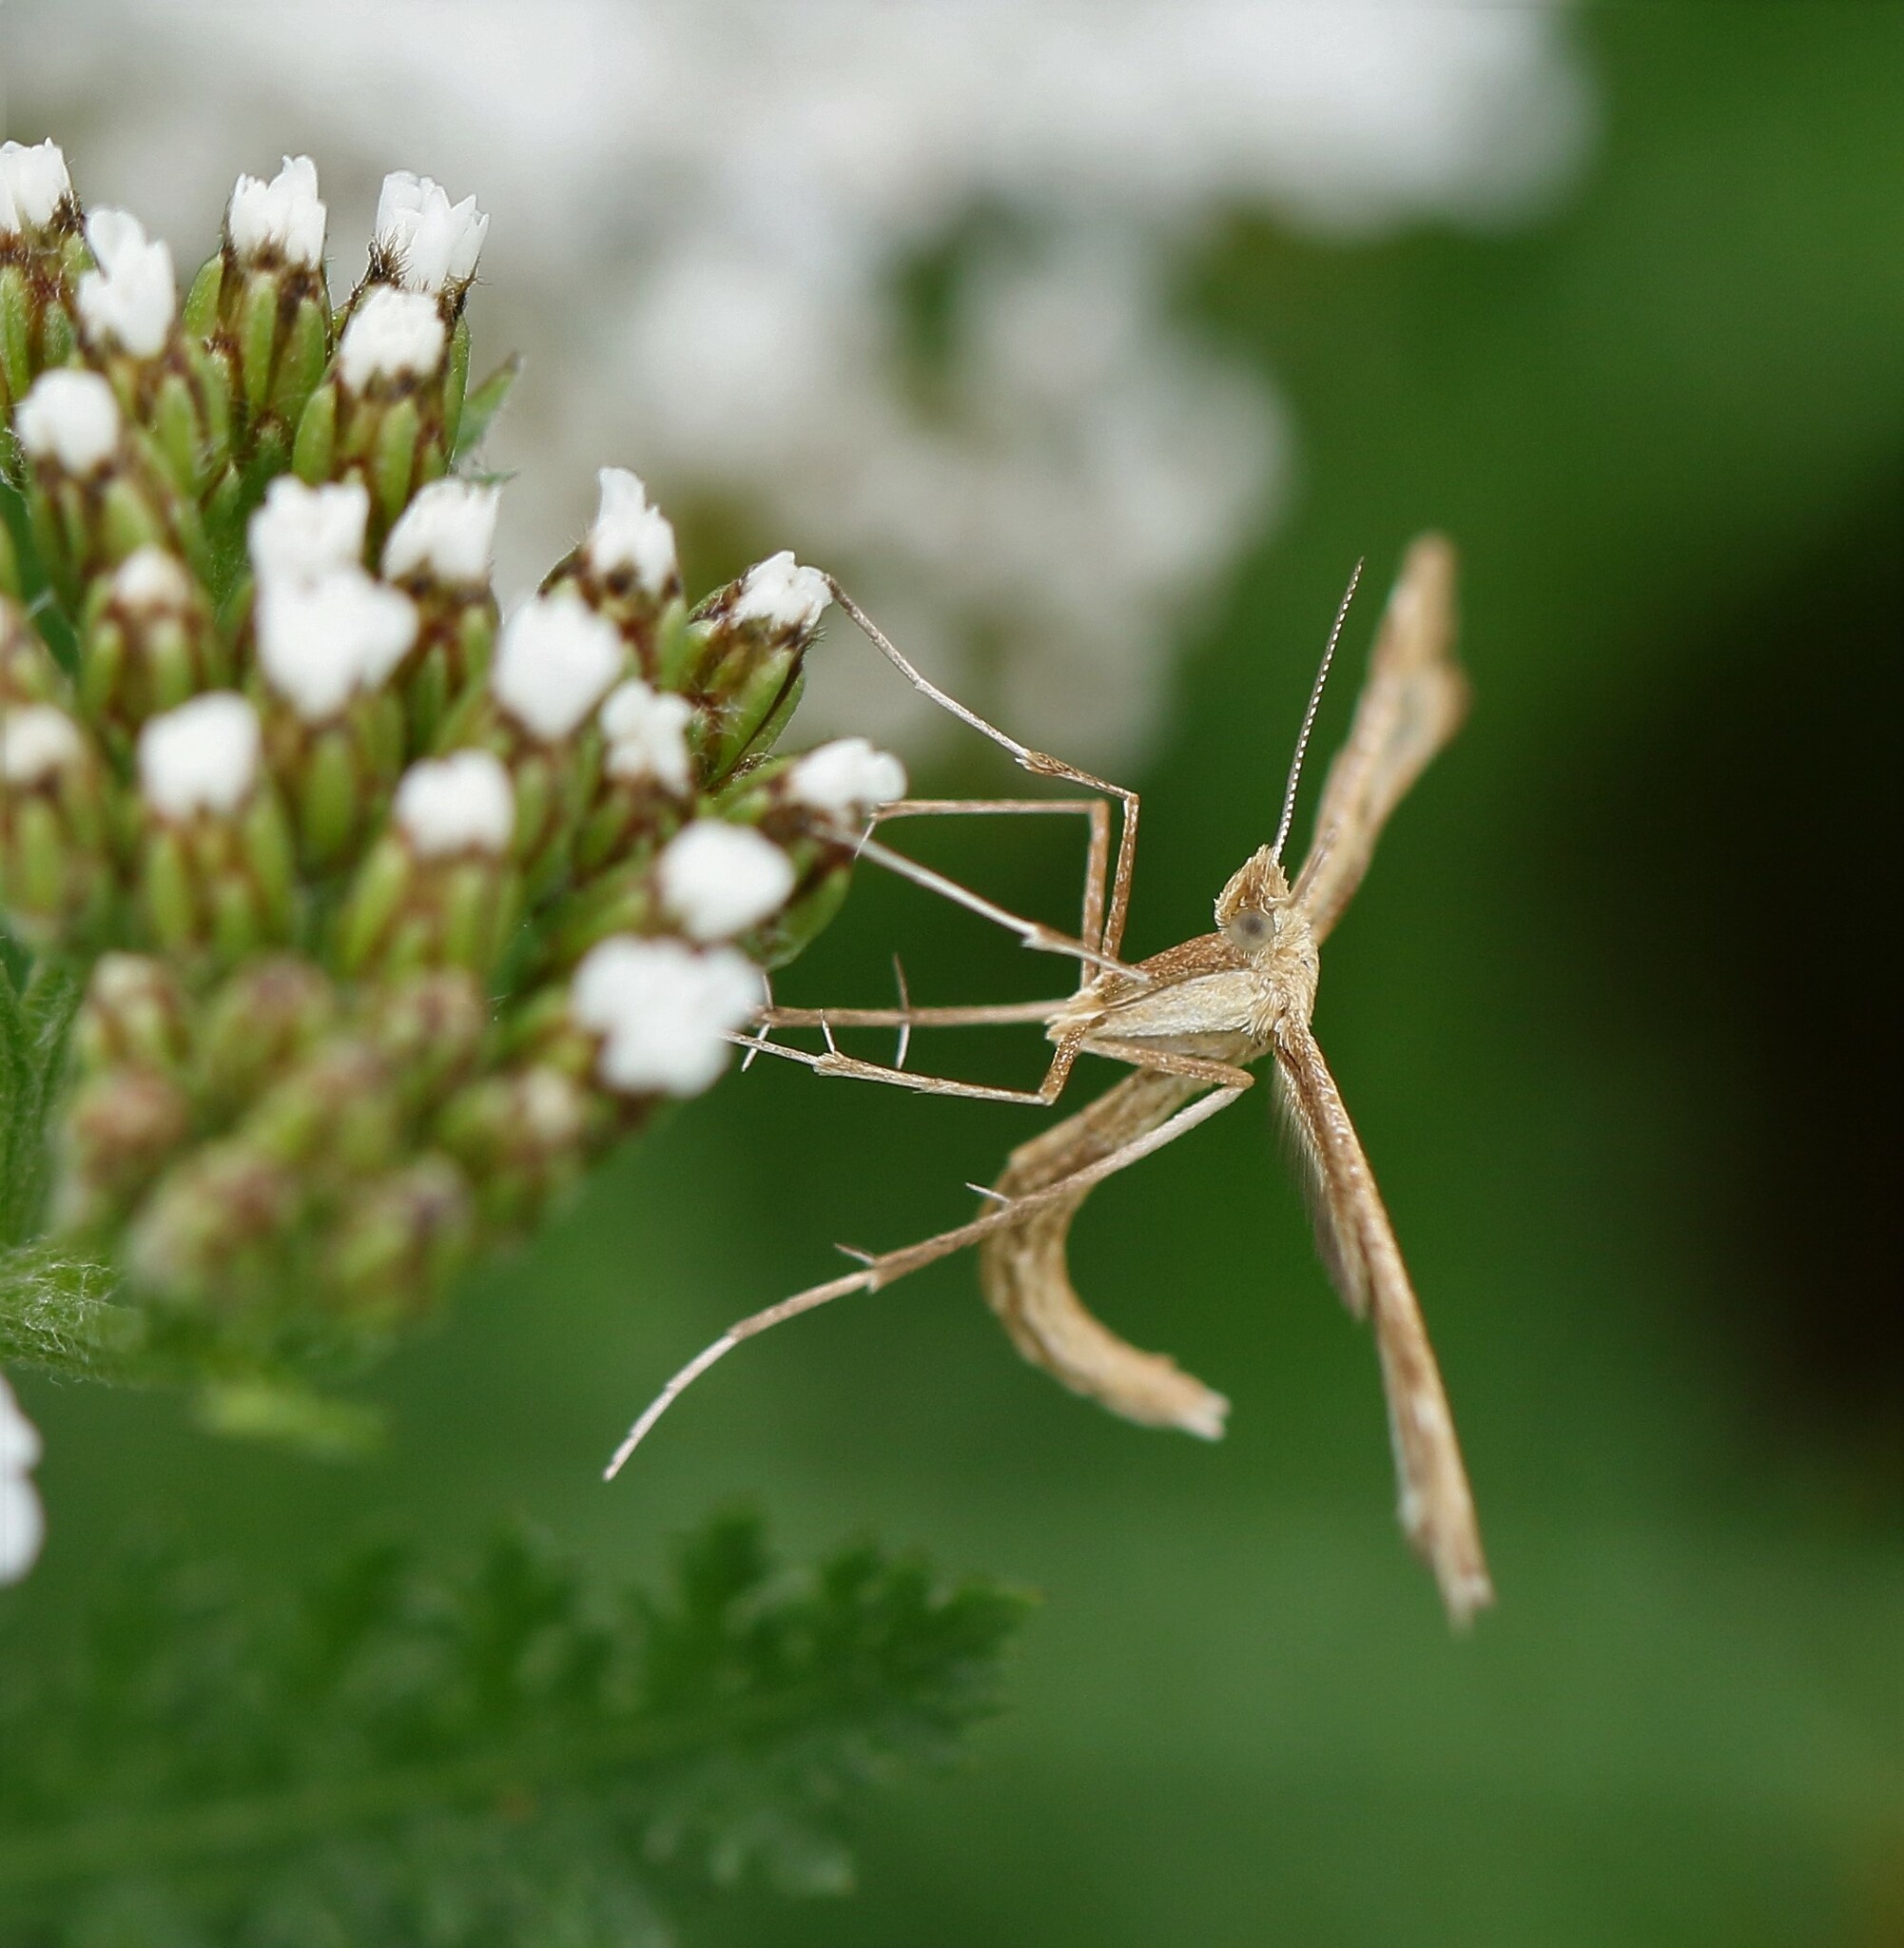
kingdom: Animalia
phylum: Arthropoda
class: Insecta
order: Lepidoptera
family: Pterophoridae
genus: Gillmeria
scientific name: Gillmeria pallidactyla
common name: Yarrow plume
